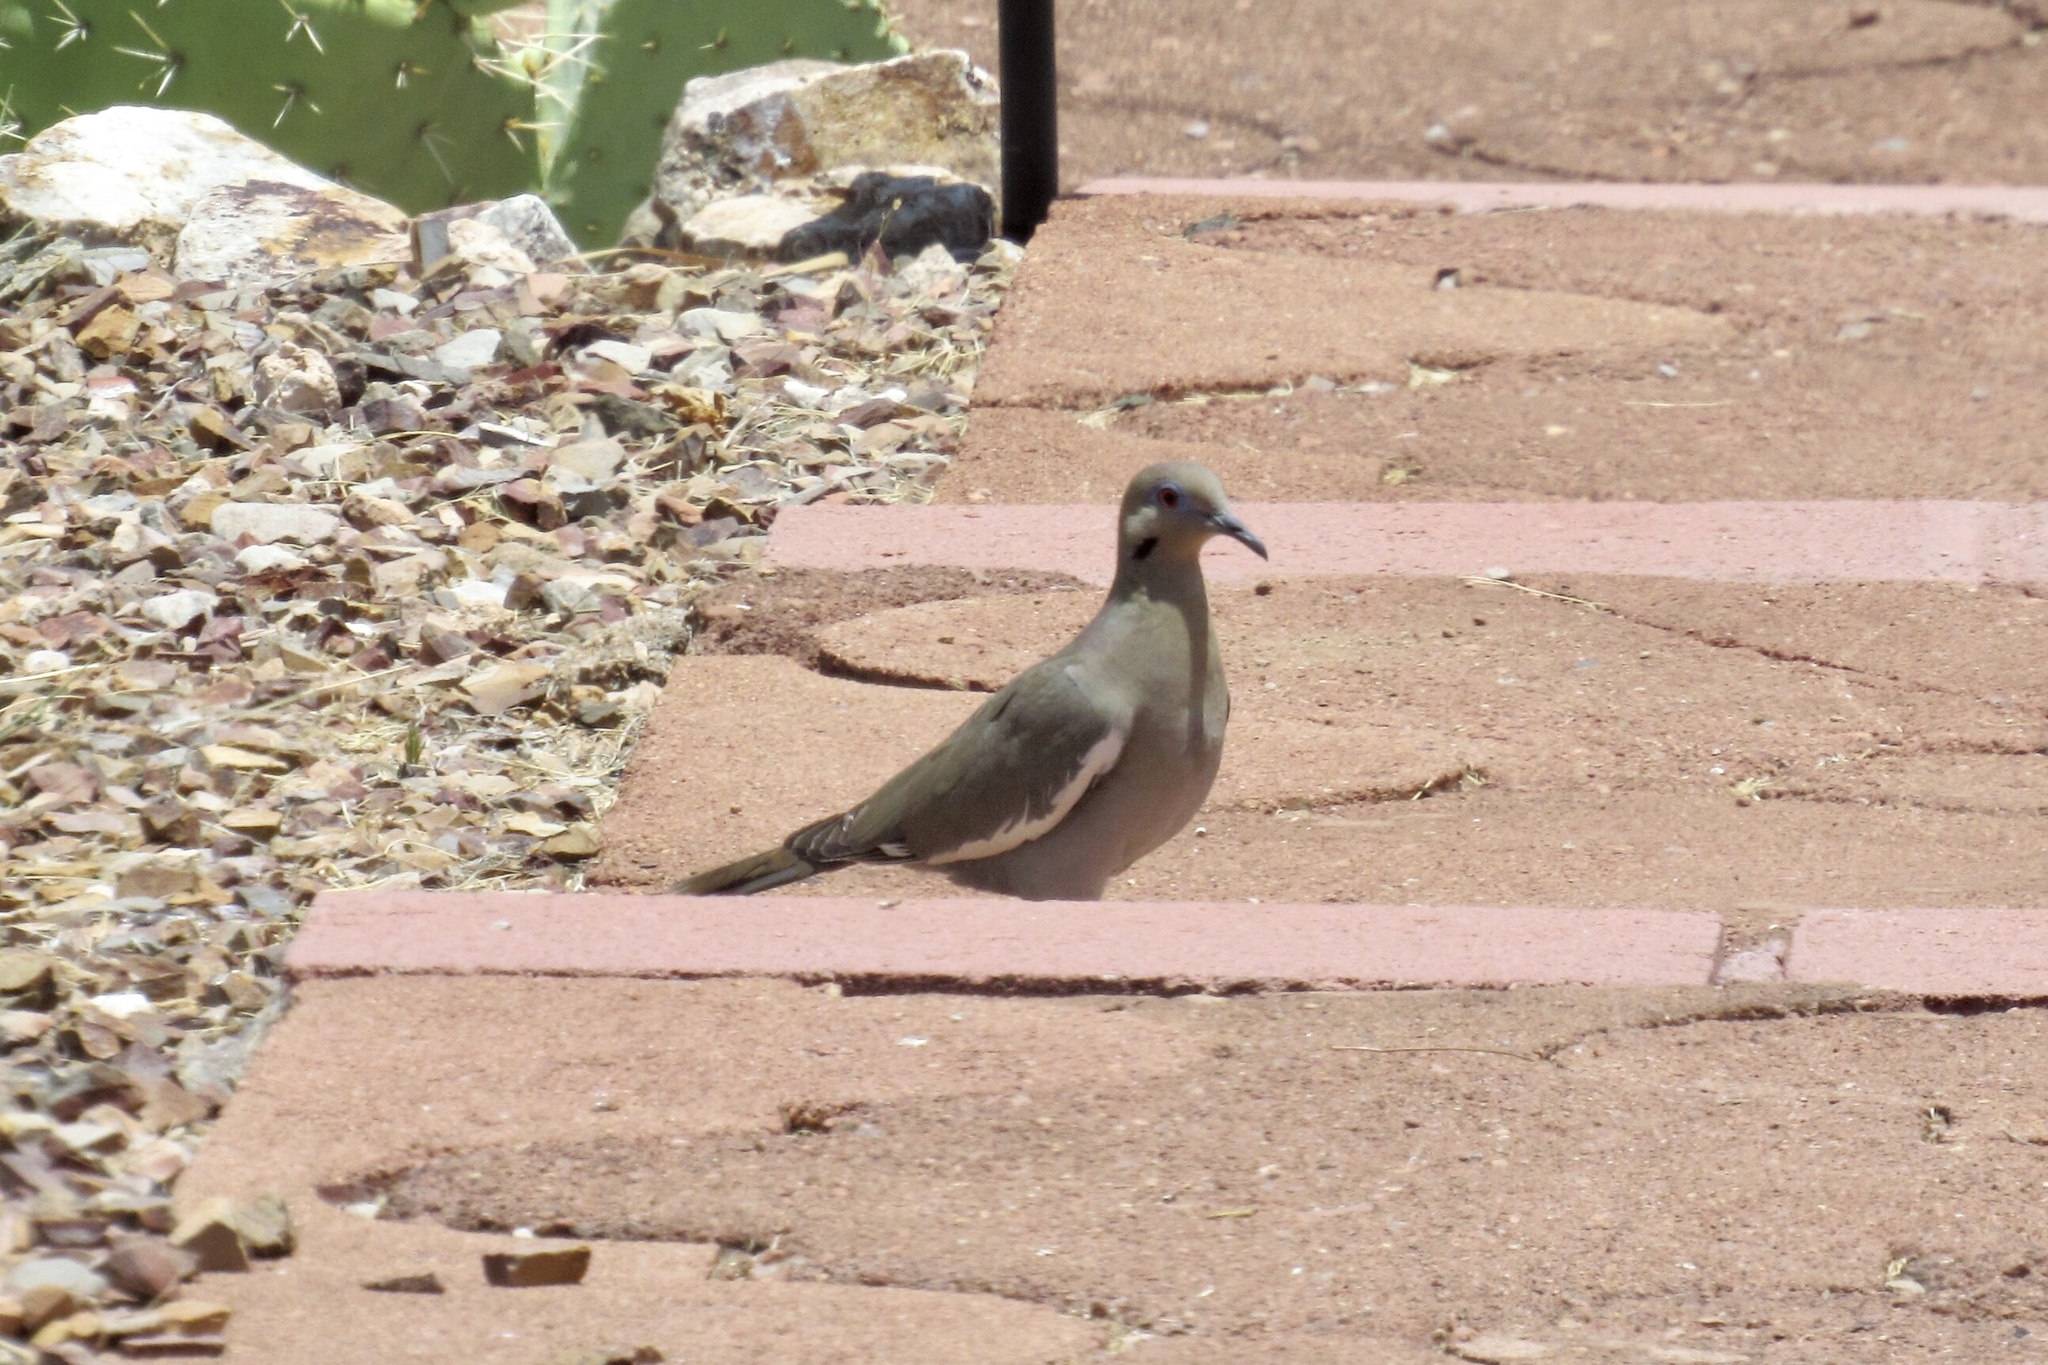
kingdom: Animalia
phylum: Chordata
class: Aves
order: Columbiformes
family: Columbidae
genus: Zenaida
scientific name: Zenaida asiatica
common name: White-winged dove
